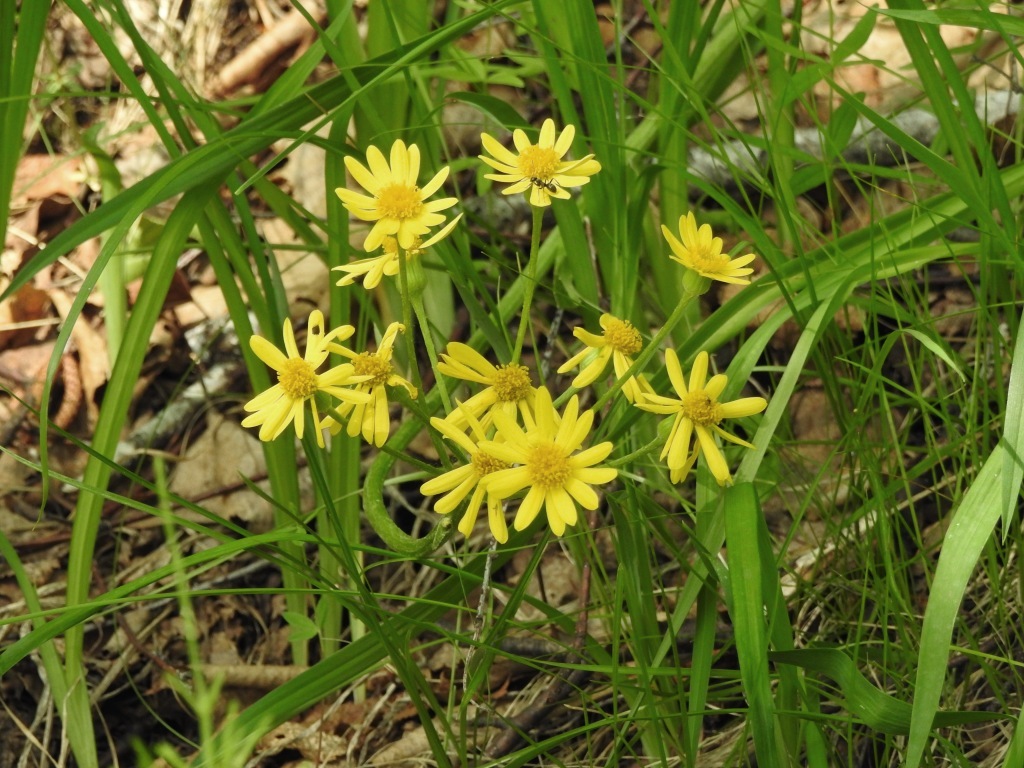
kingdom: Plantae
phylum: Tracheophyta
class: Magnoliopsida
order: Asterales
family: Asteraceae
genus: Tephroseris
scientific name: Tephroseris integrifolia
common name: Field fleawort
